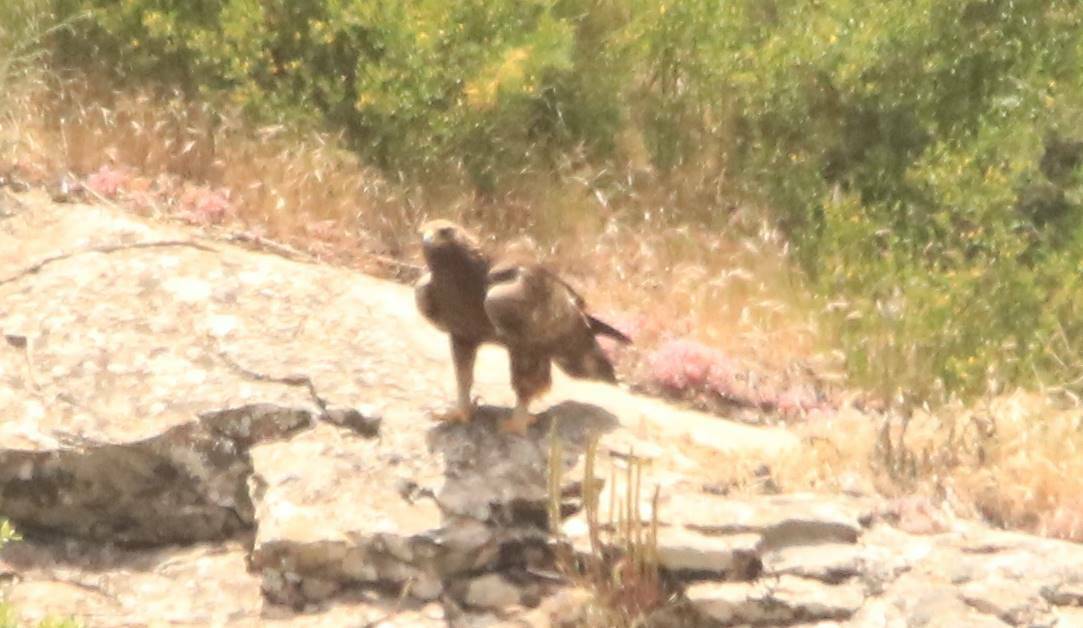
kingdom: Animalia
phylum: Chordata
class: Aves
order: Accipitriformes
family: Accipitridae
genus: Aquila
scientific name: Aquila chrysaetos
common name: Golden eagle
